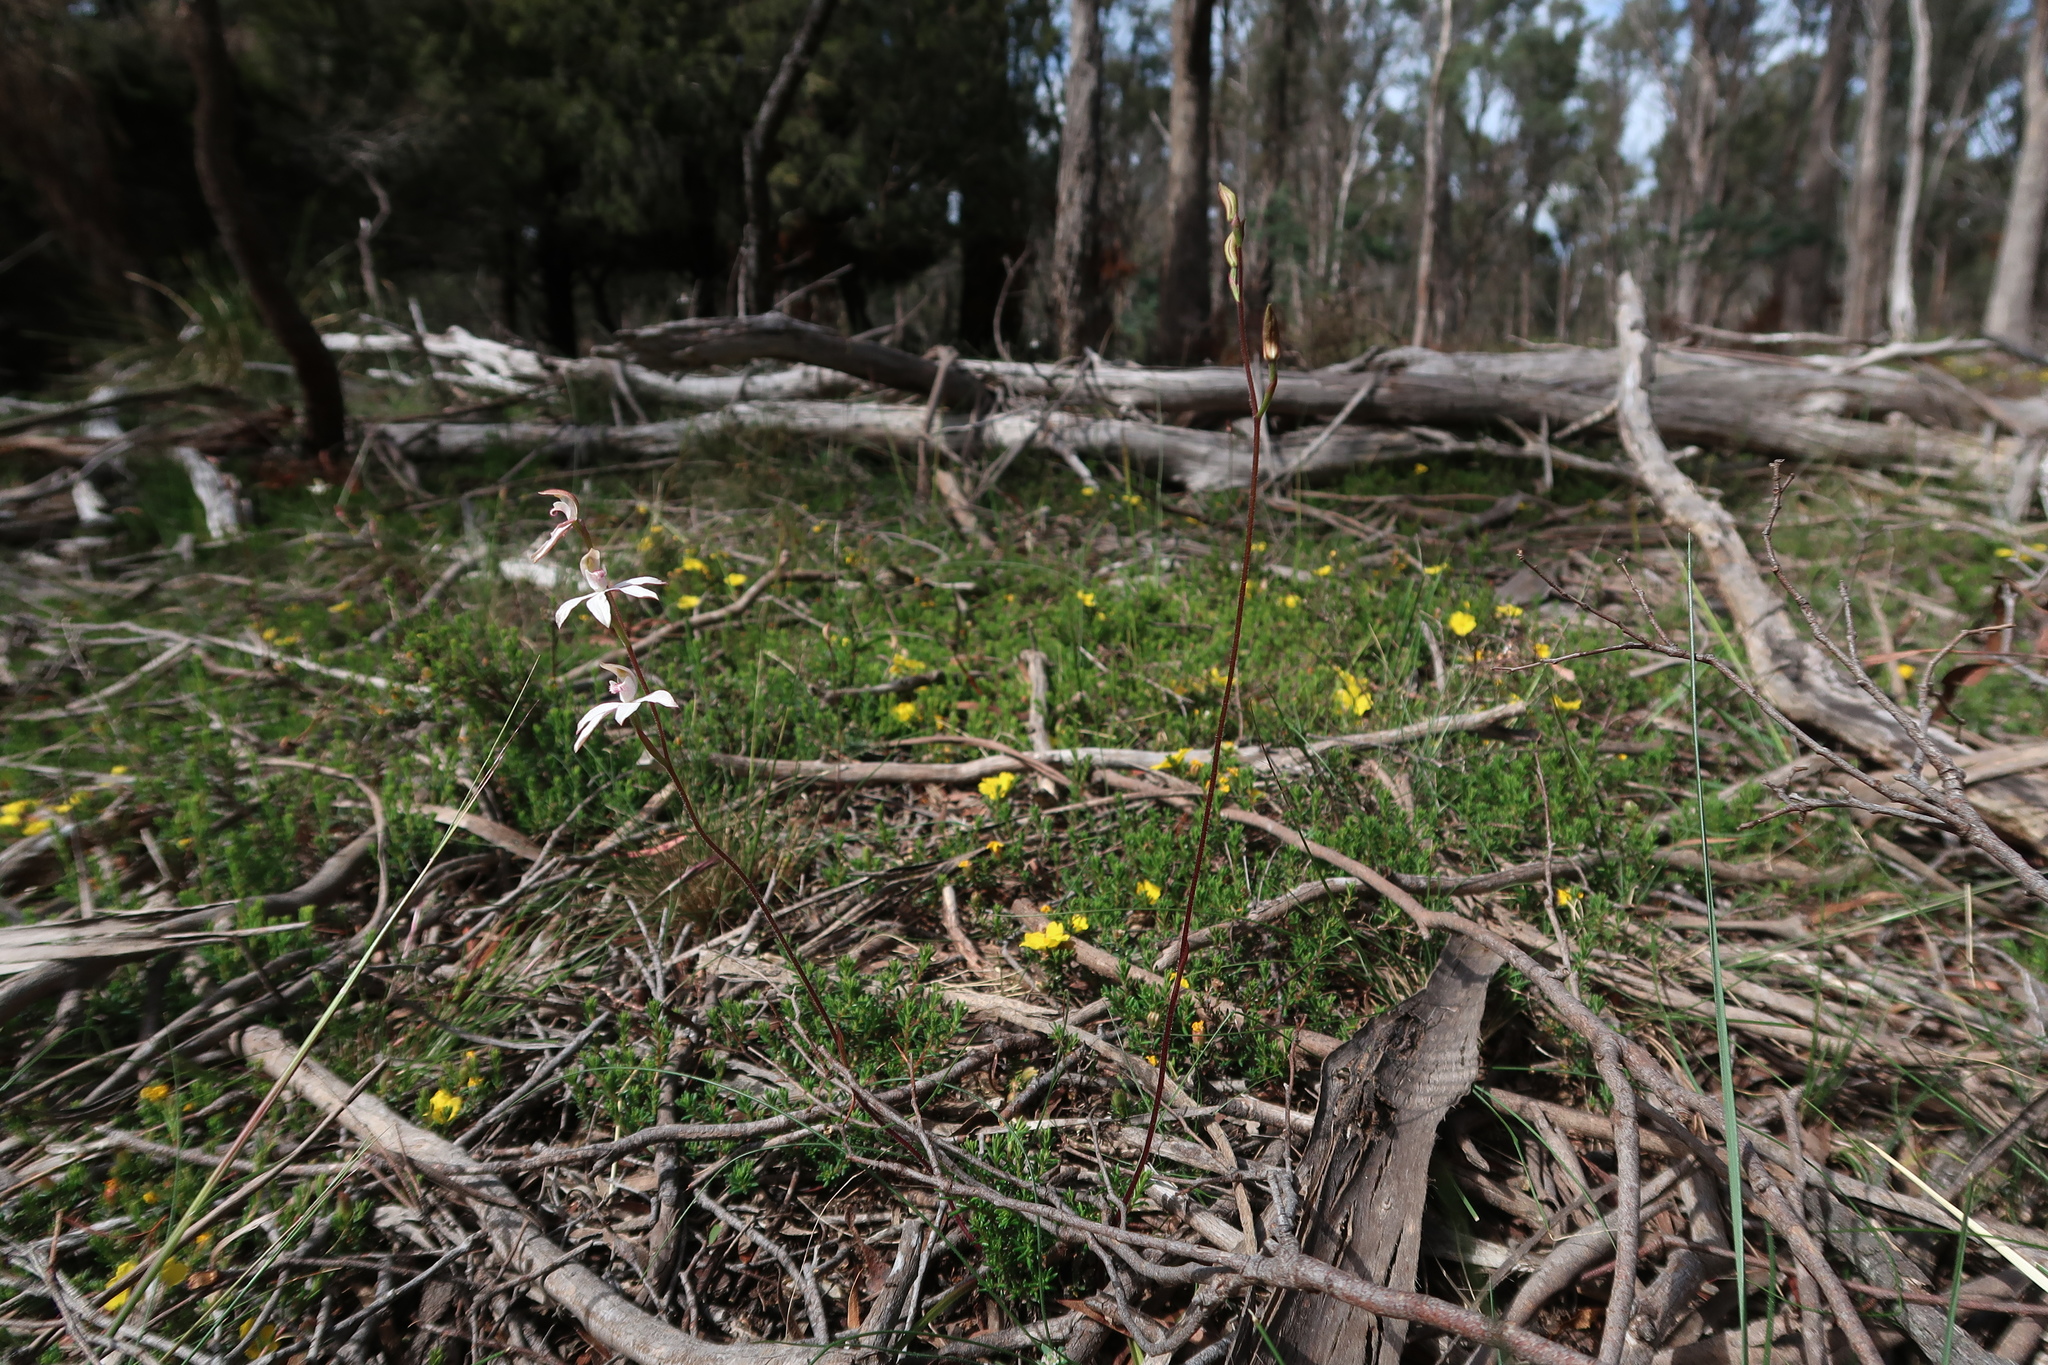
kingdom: Plantae
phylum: Tracheophyta
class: Liliopsida
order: Asparagales
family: Orchidaceae
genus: Caladenia
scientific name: Caladenia gracilis
